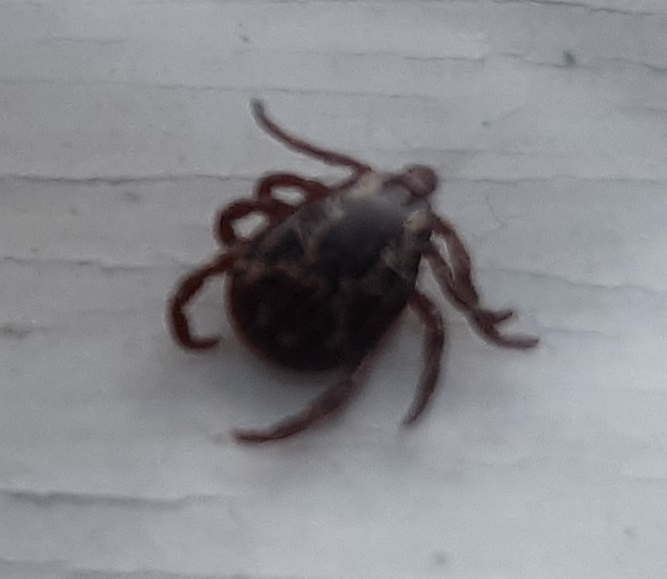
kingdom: Animalia
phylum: Arthropoda
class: Arachnida
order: Ixodida
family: Ixodidae
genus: Dermacentor
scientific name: Dermacentor variabilis
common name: American dog tick
